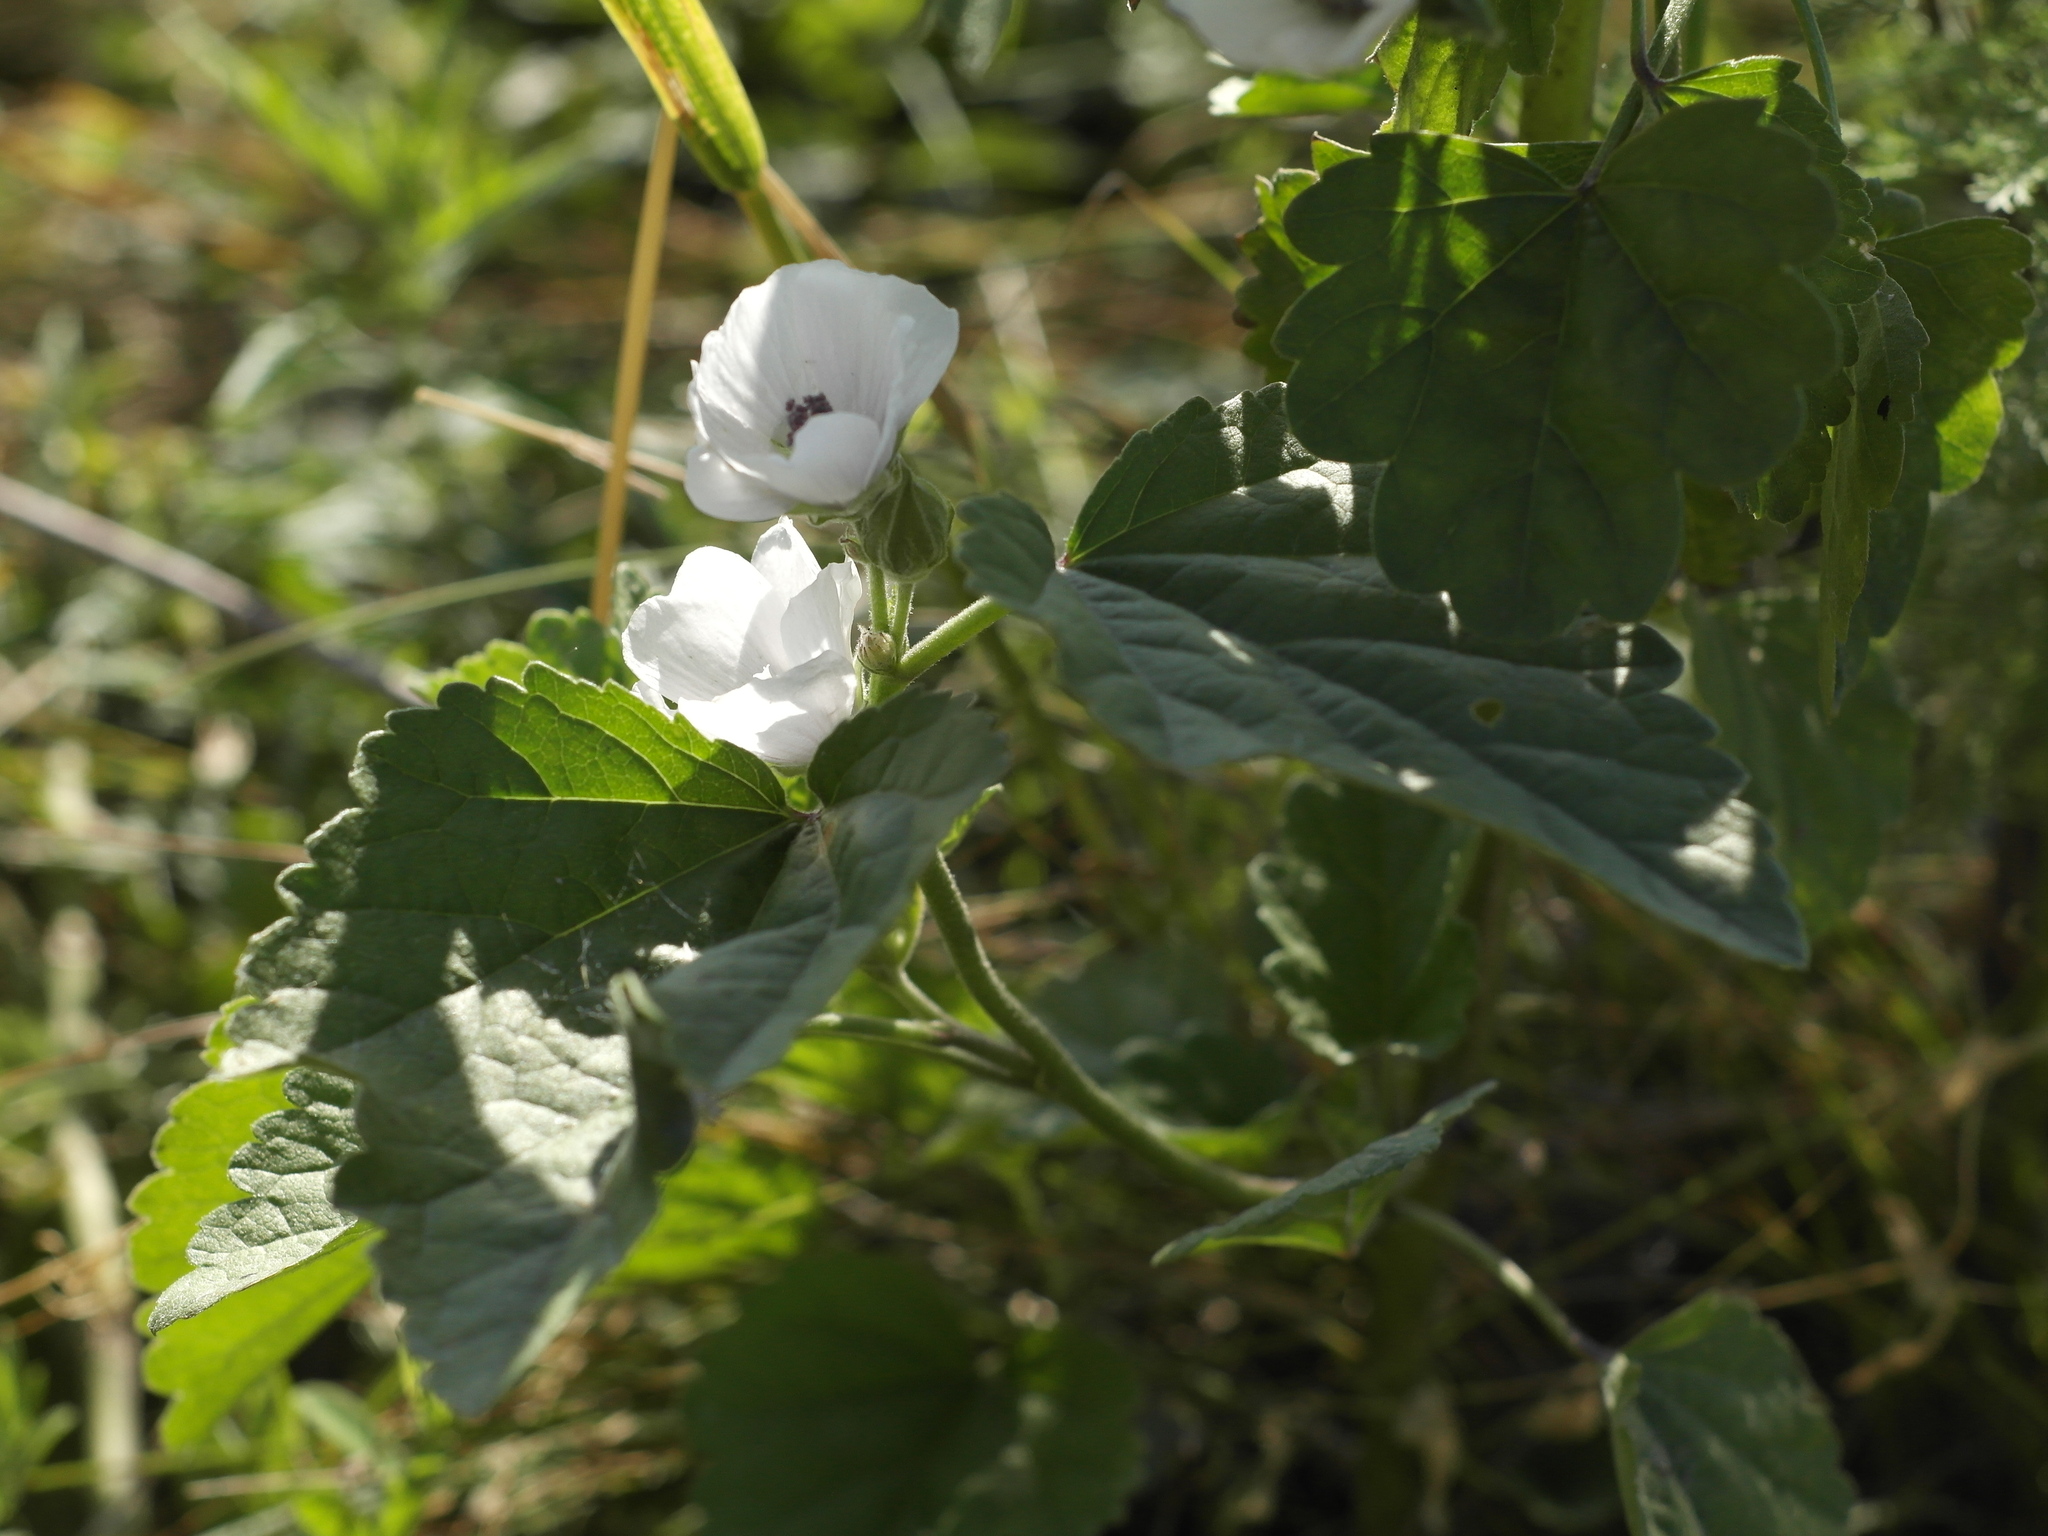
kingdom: Plantae
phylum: Tracheophyta
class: Magnoliopsida
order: Malvales
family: Malvaceae
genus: Althaea
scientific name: Althaea officinalis
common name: Marsh-mallow
